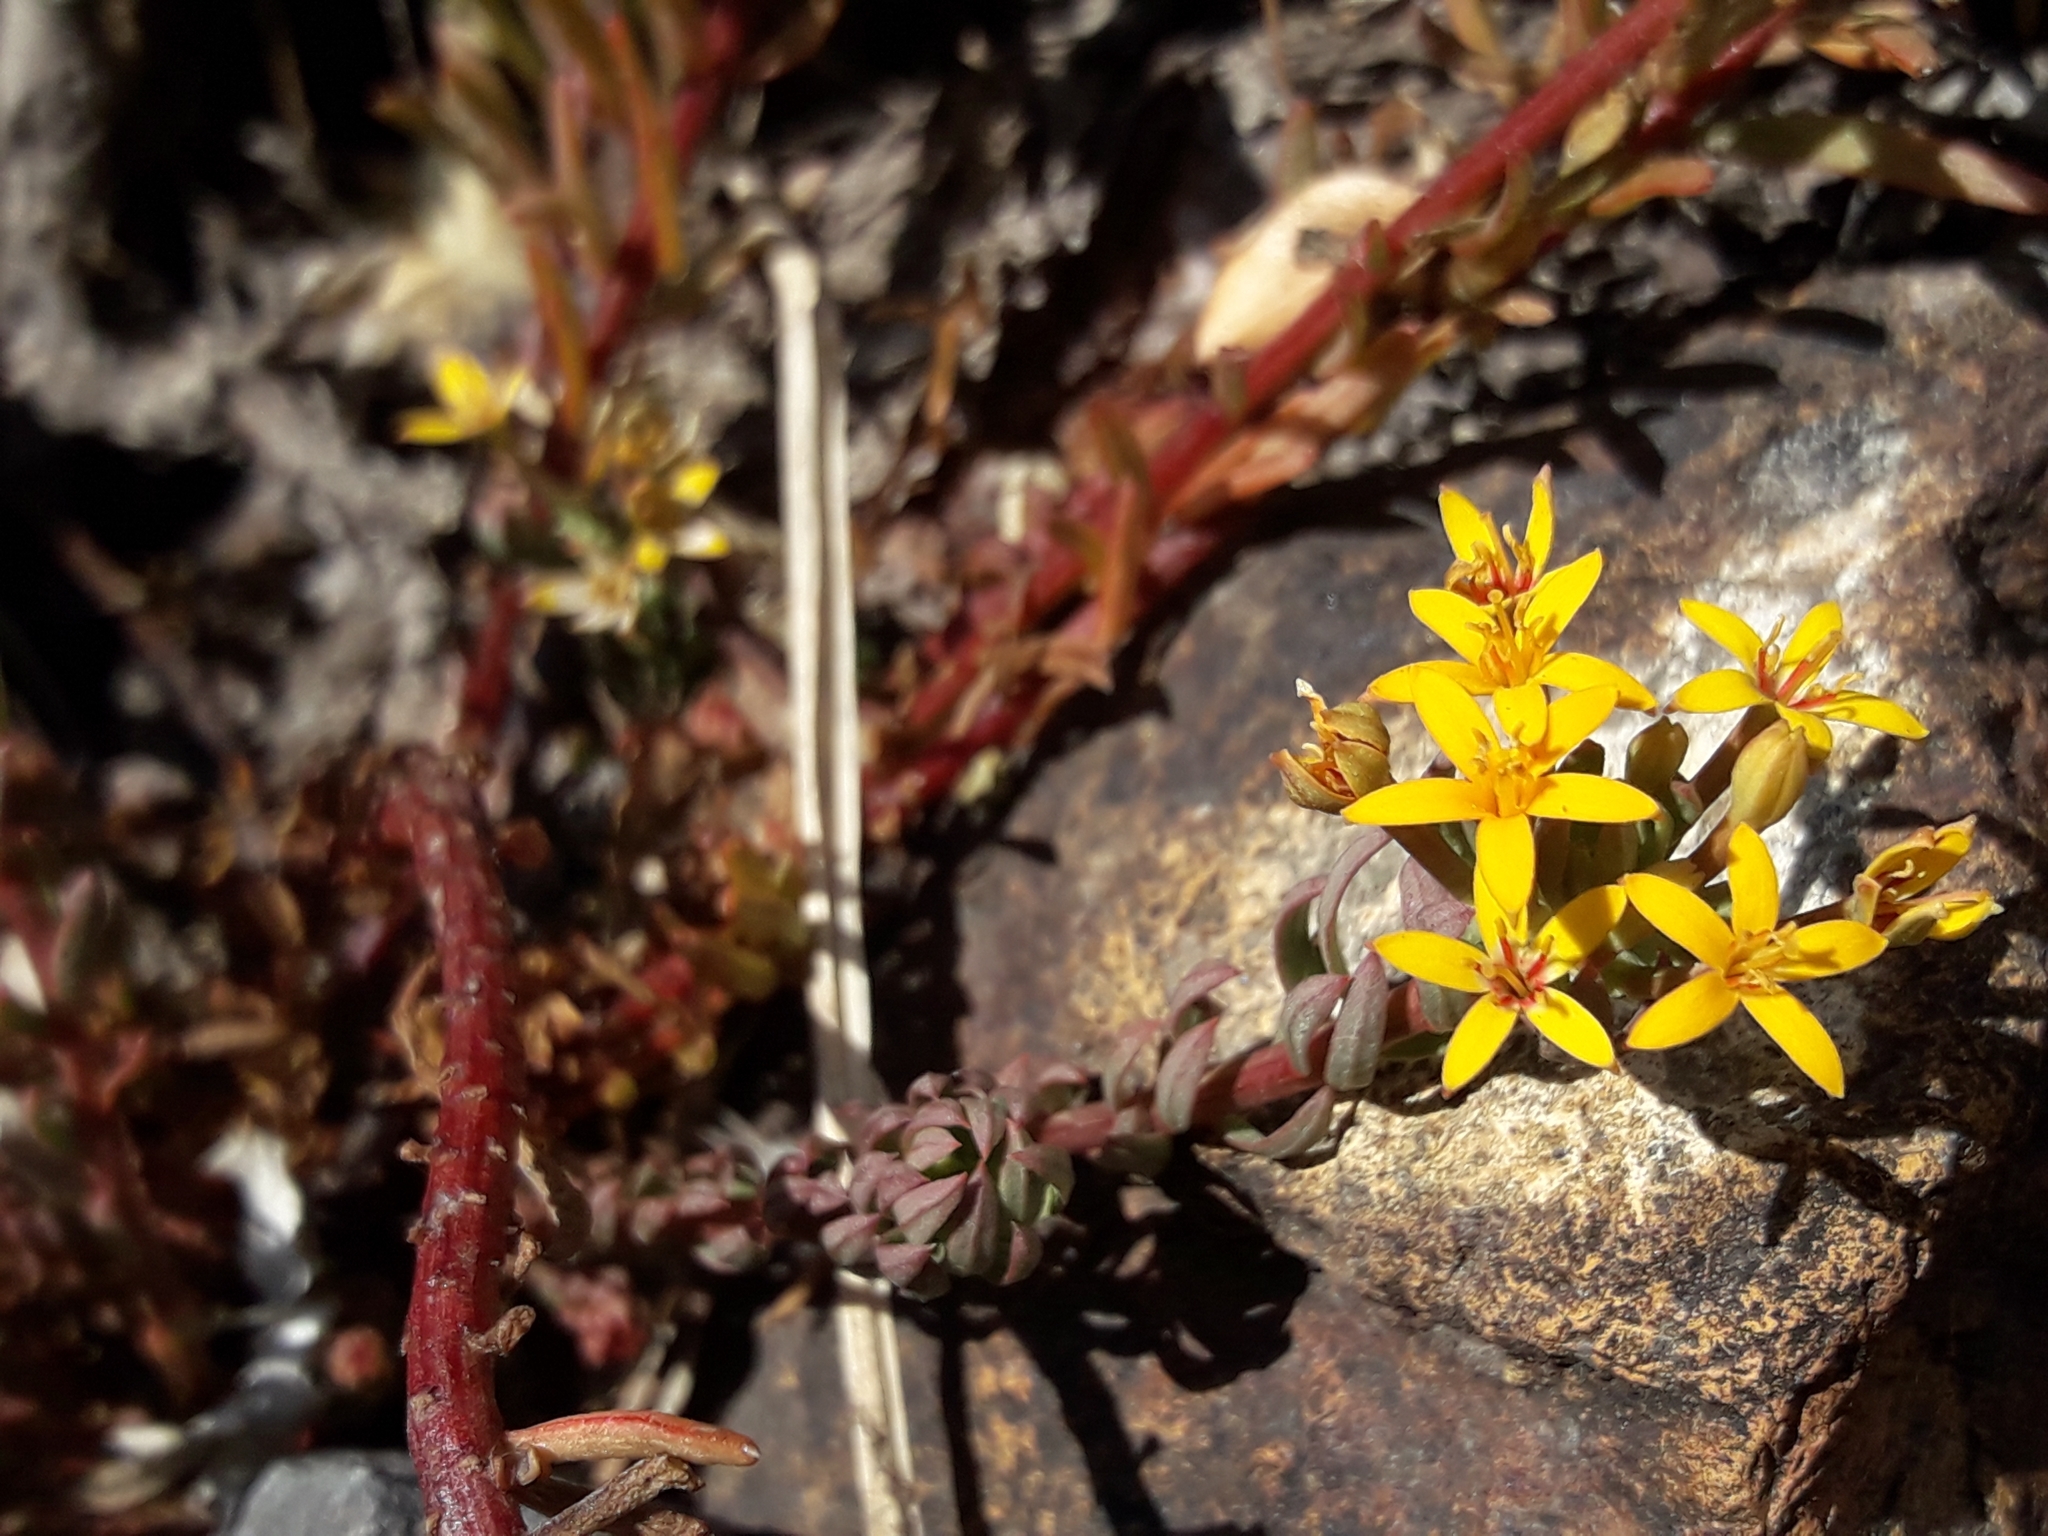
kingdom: Plantae
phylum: Tracheophyta
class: Magnoliopsida
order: Santalales
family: Schoepfiaceae
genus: Quinchamalium
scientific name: Quinchamalium chilense
